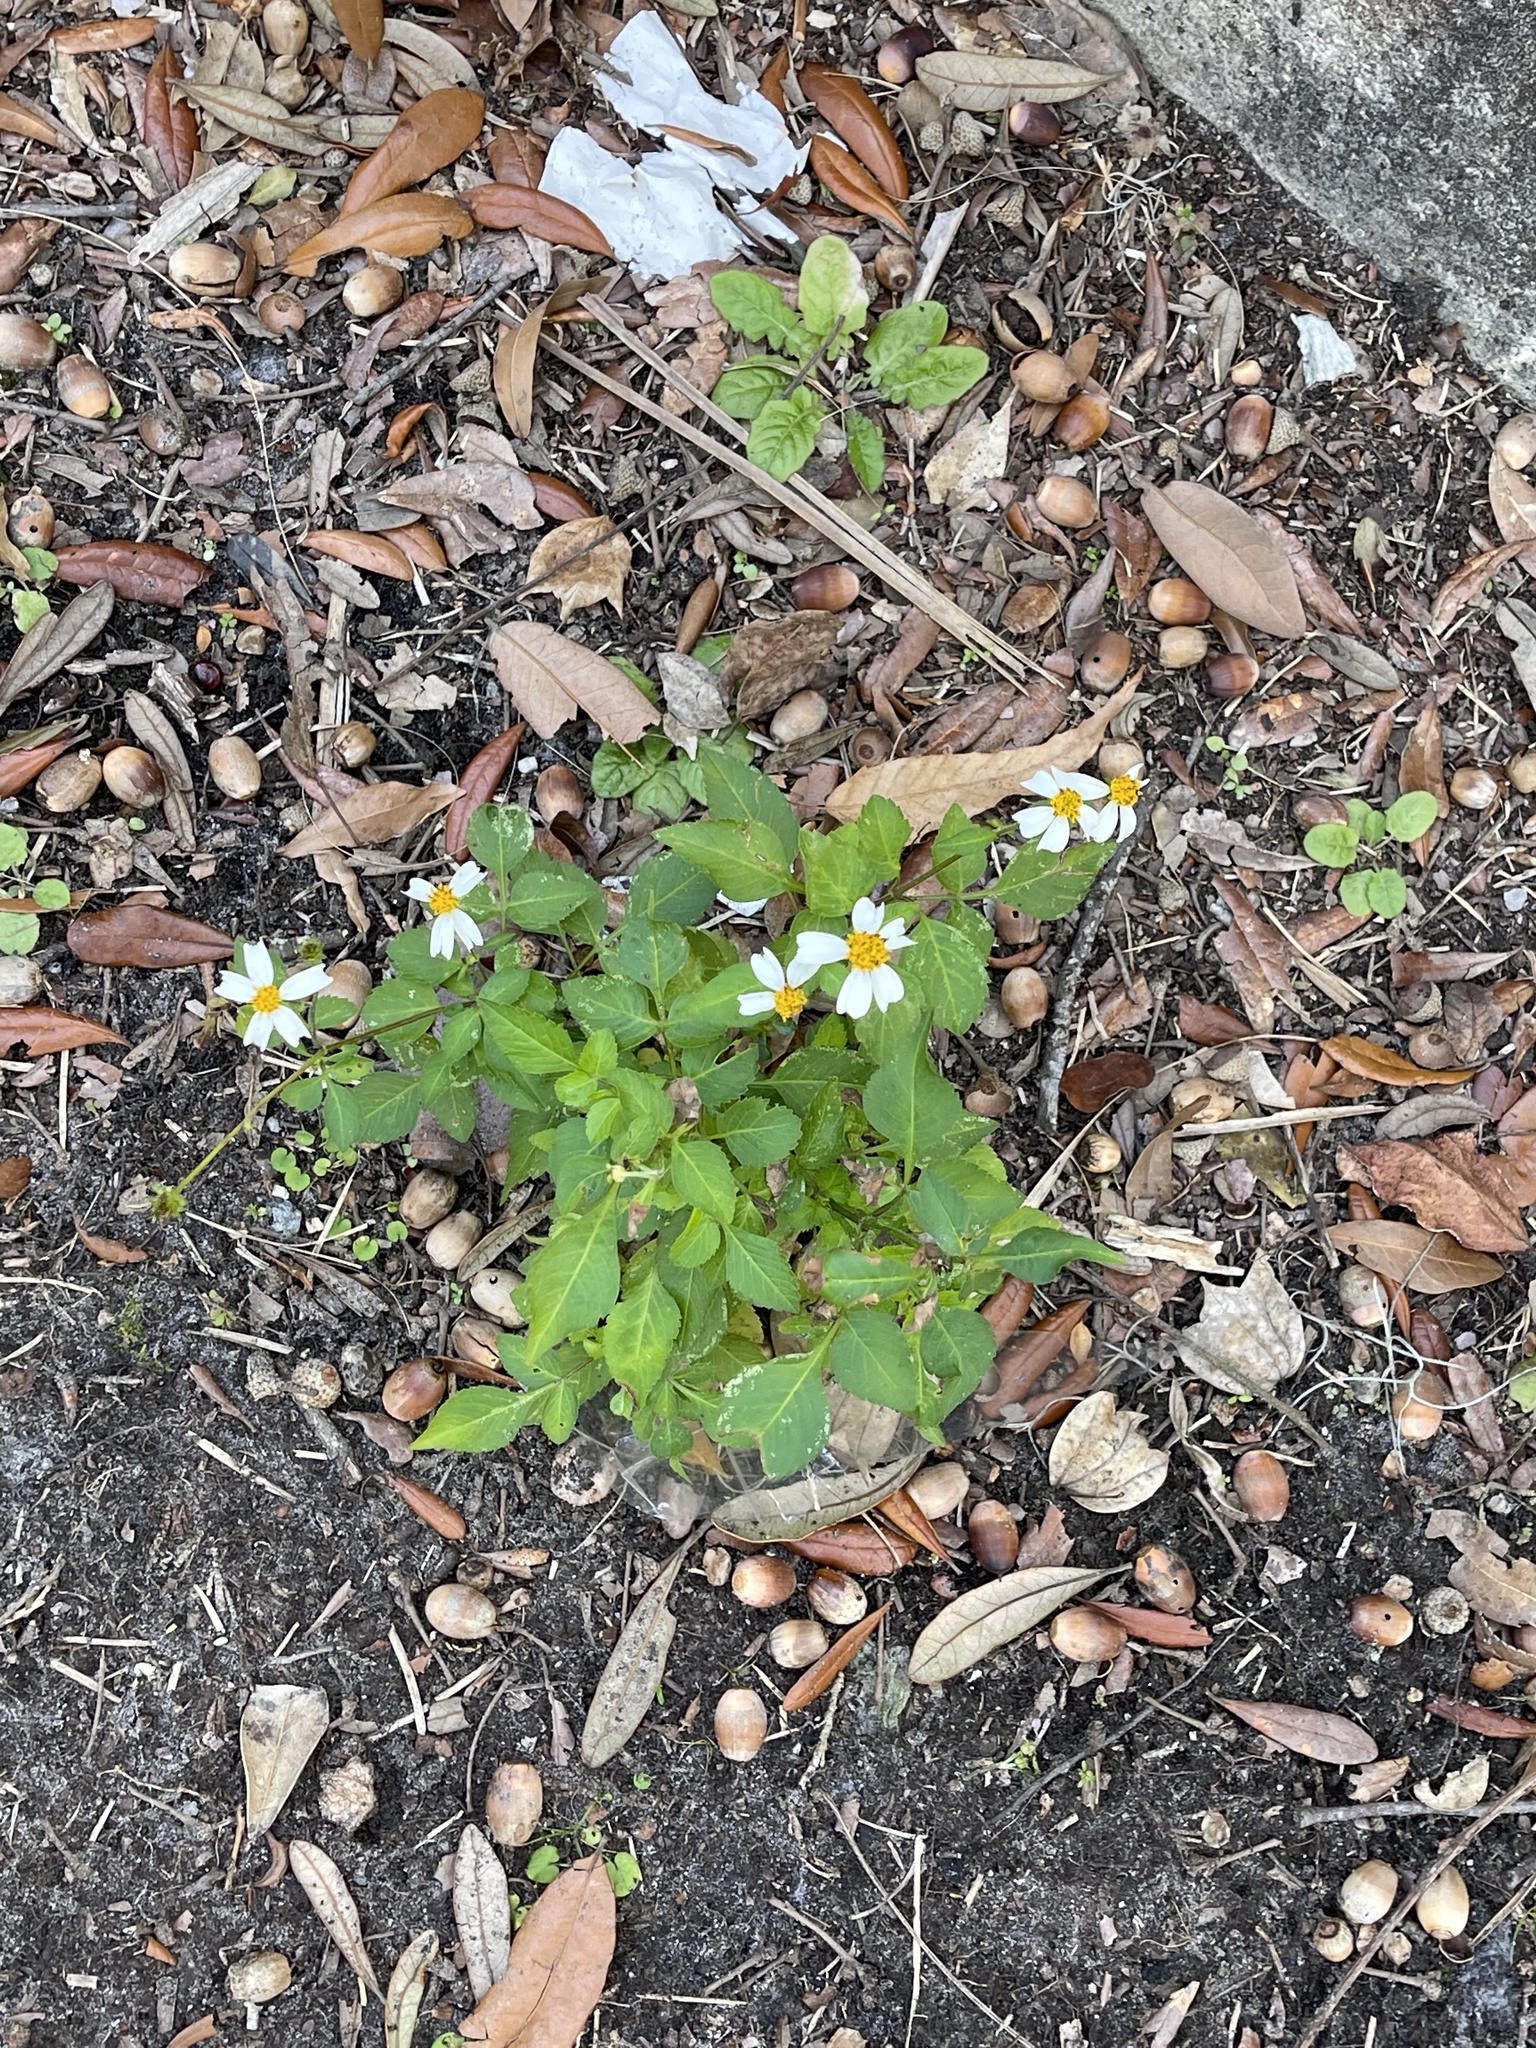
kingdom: Plantae
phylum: Tracheophyta
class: Magnoliopsida
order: Asterales
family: Asteraceae
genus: Bidens
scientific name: Bidens alba
